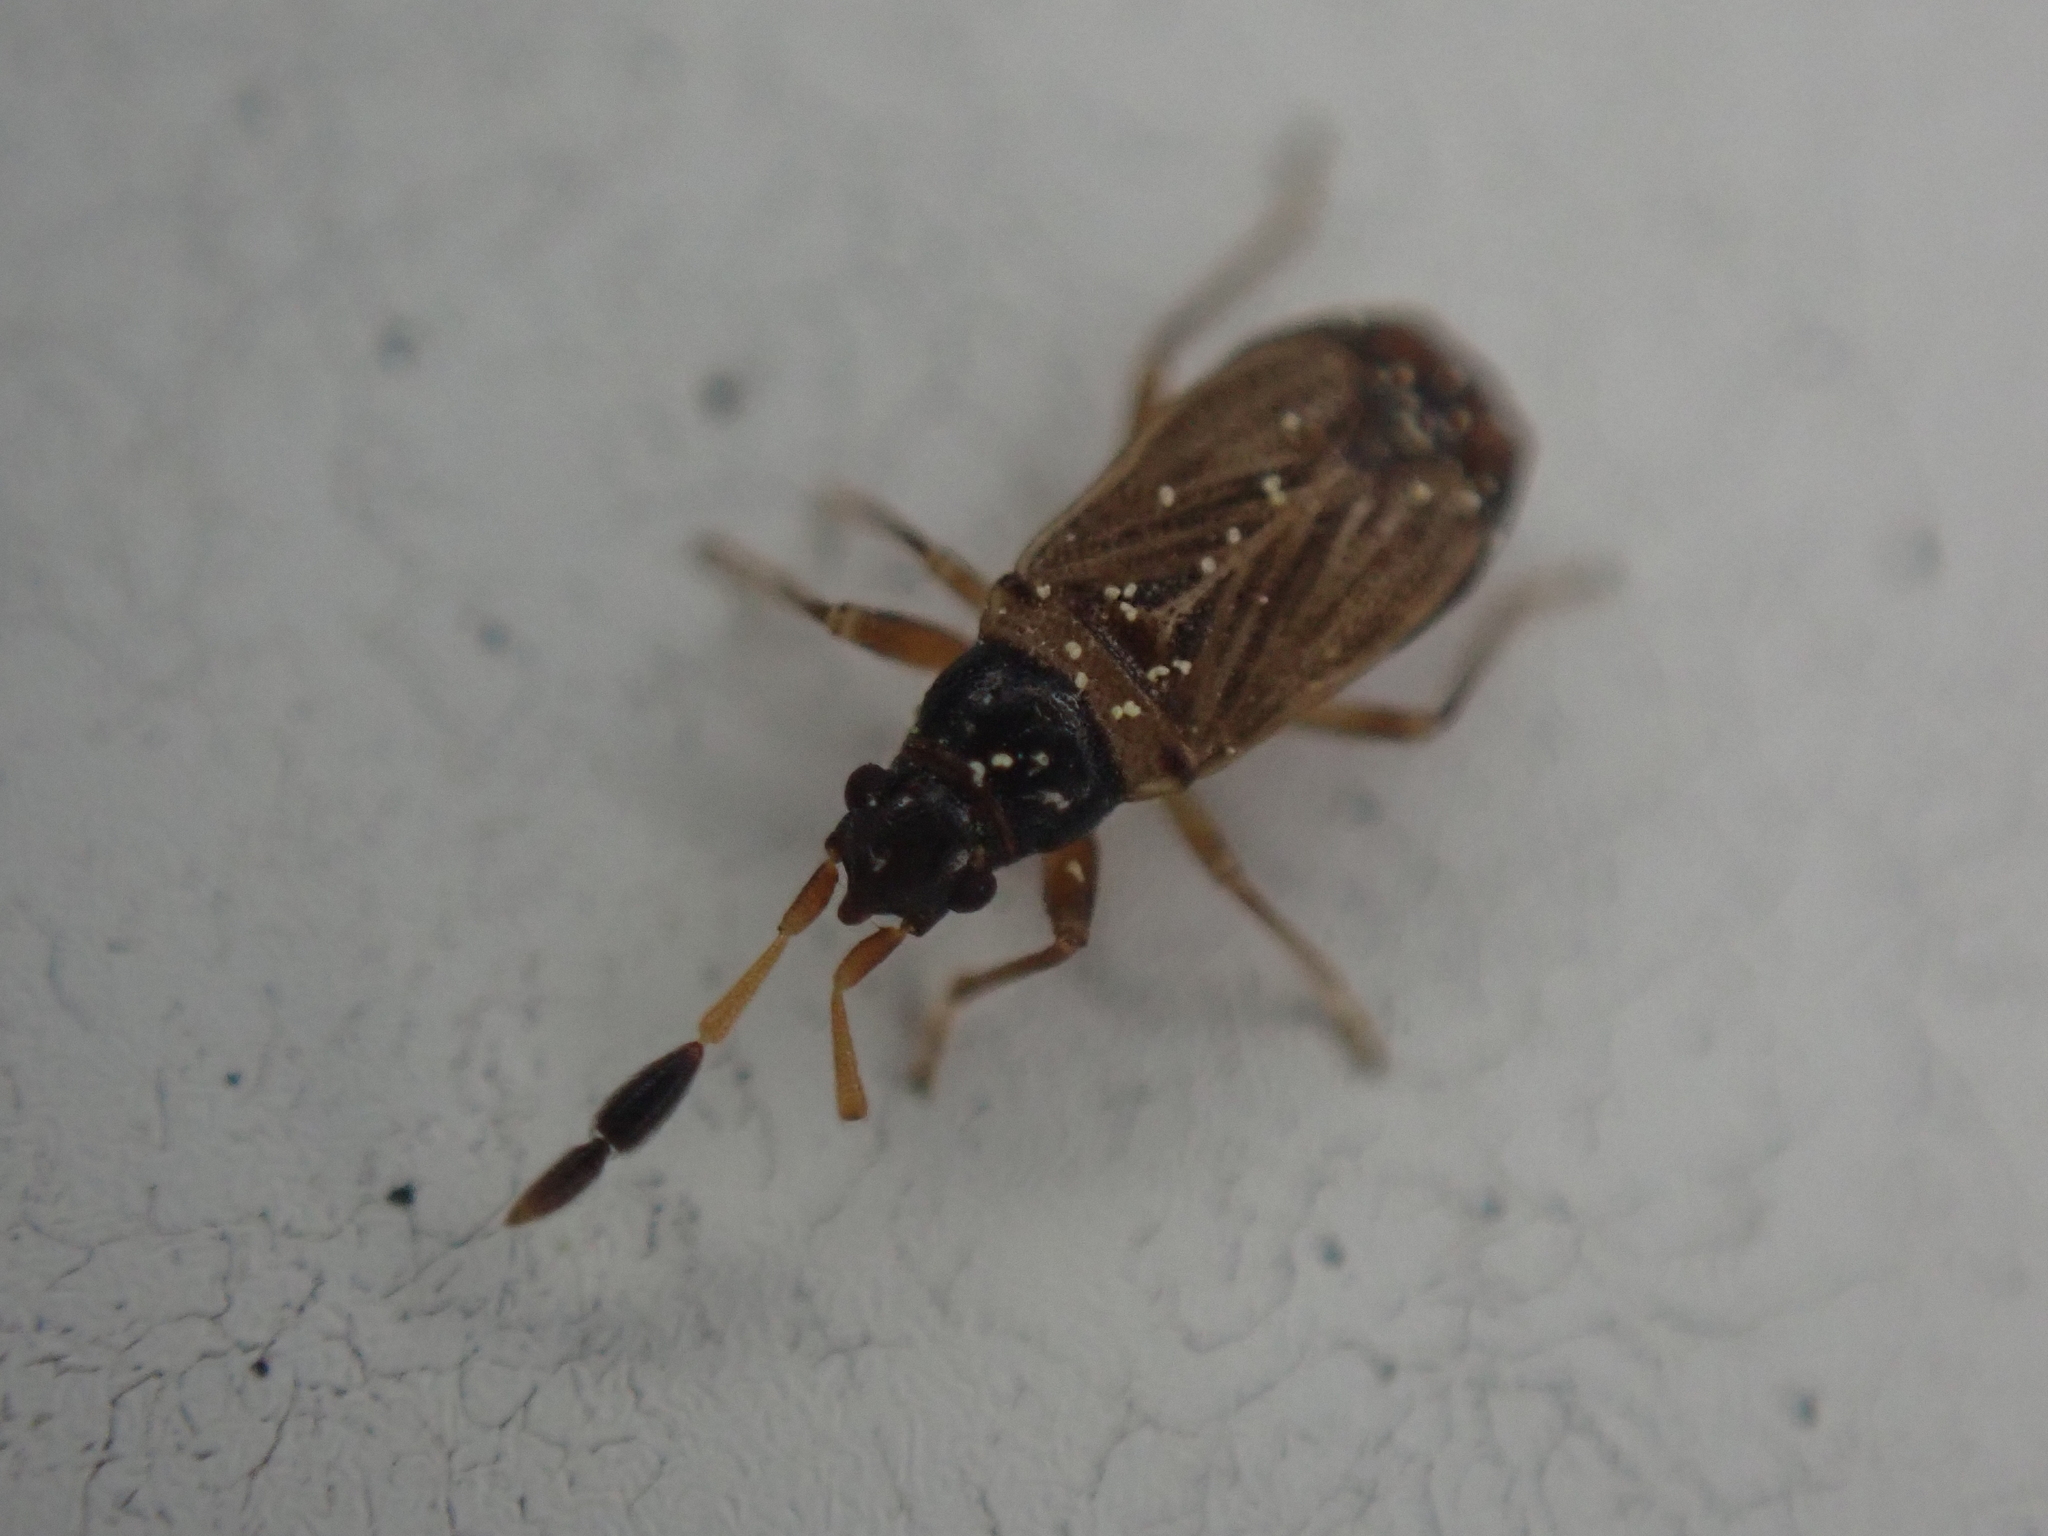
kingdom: Animalia
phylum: Arthropoda
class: Insecta
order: Hemiptera
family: Rhyparochromidae
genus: Ptochiomera
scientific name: Ptochiomera nodosa
